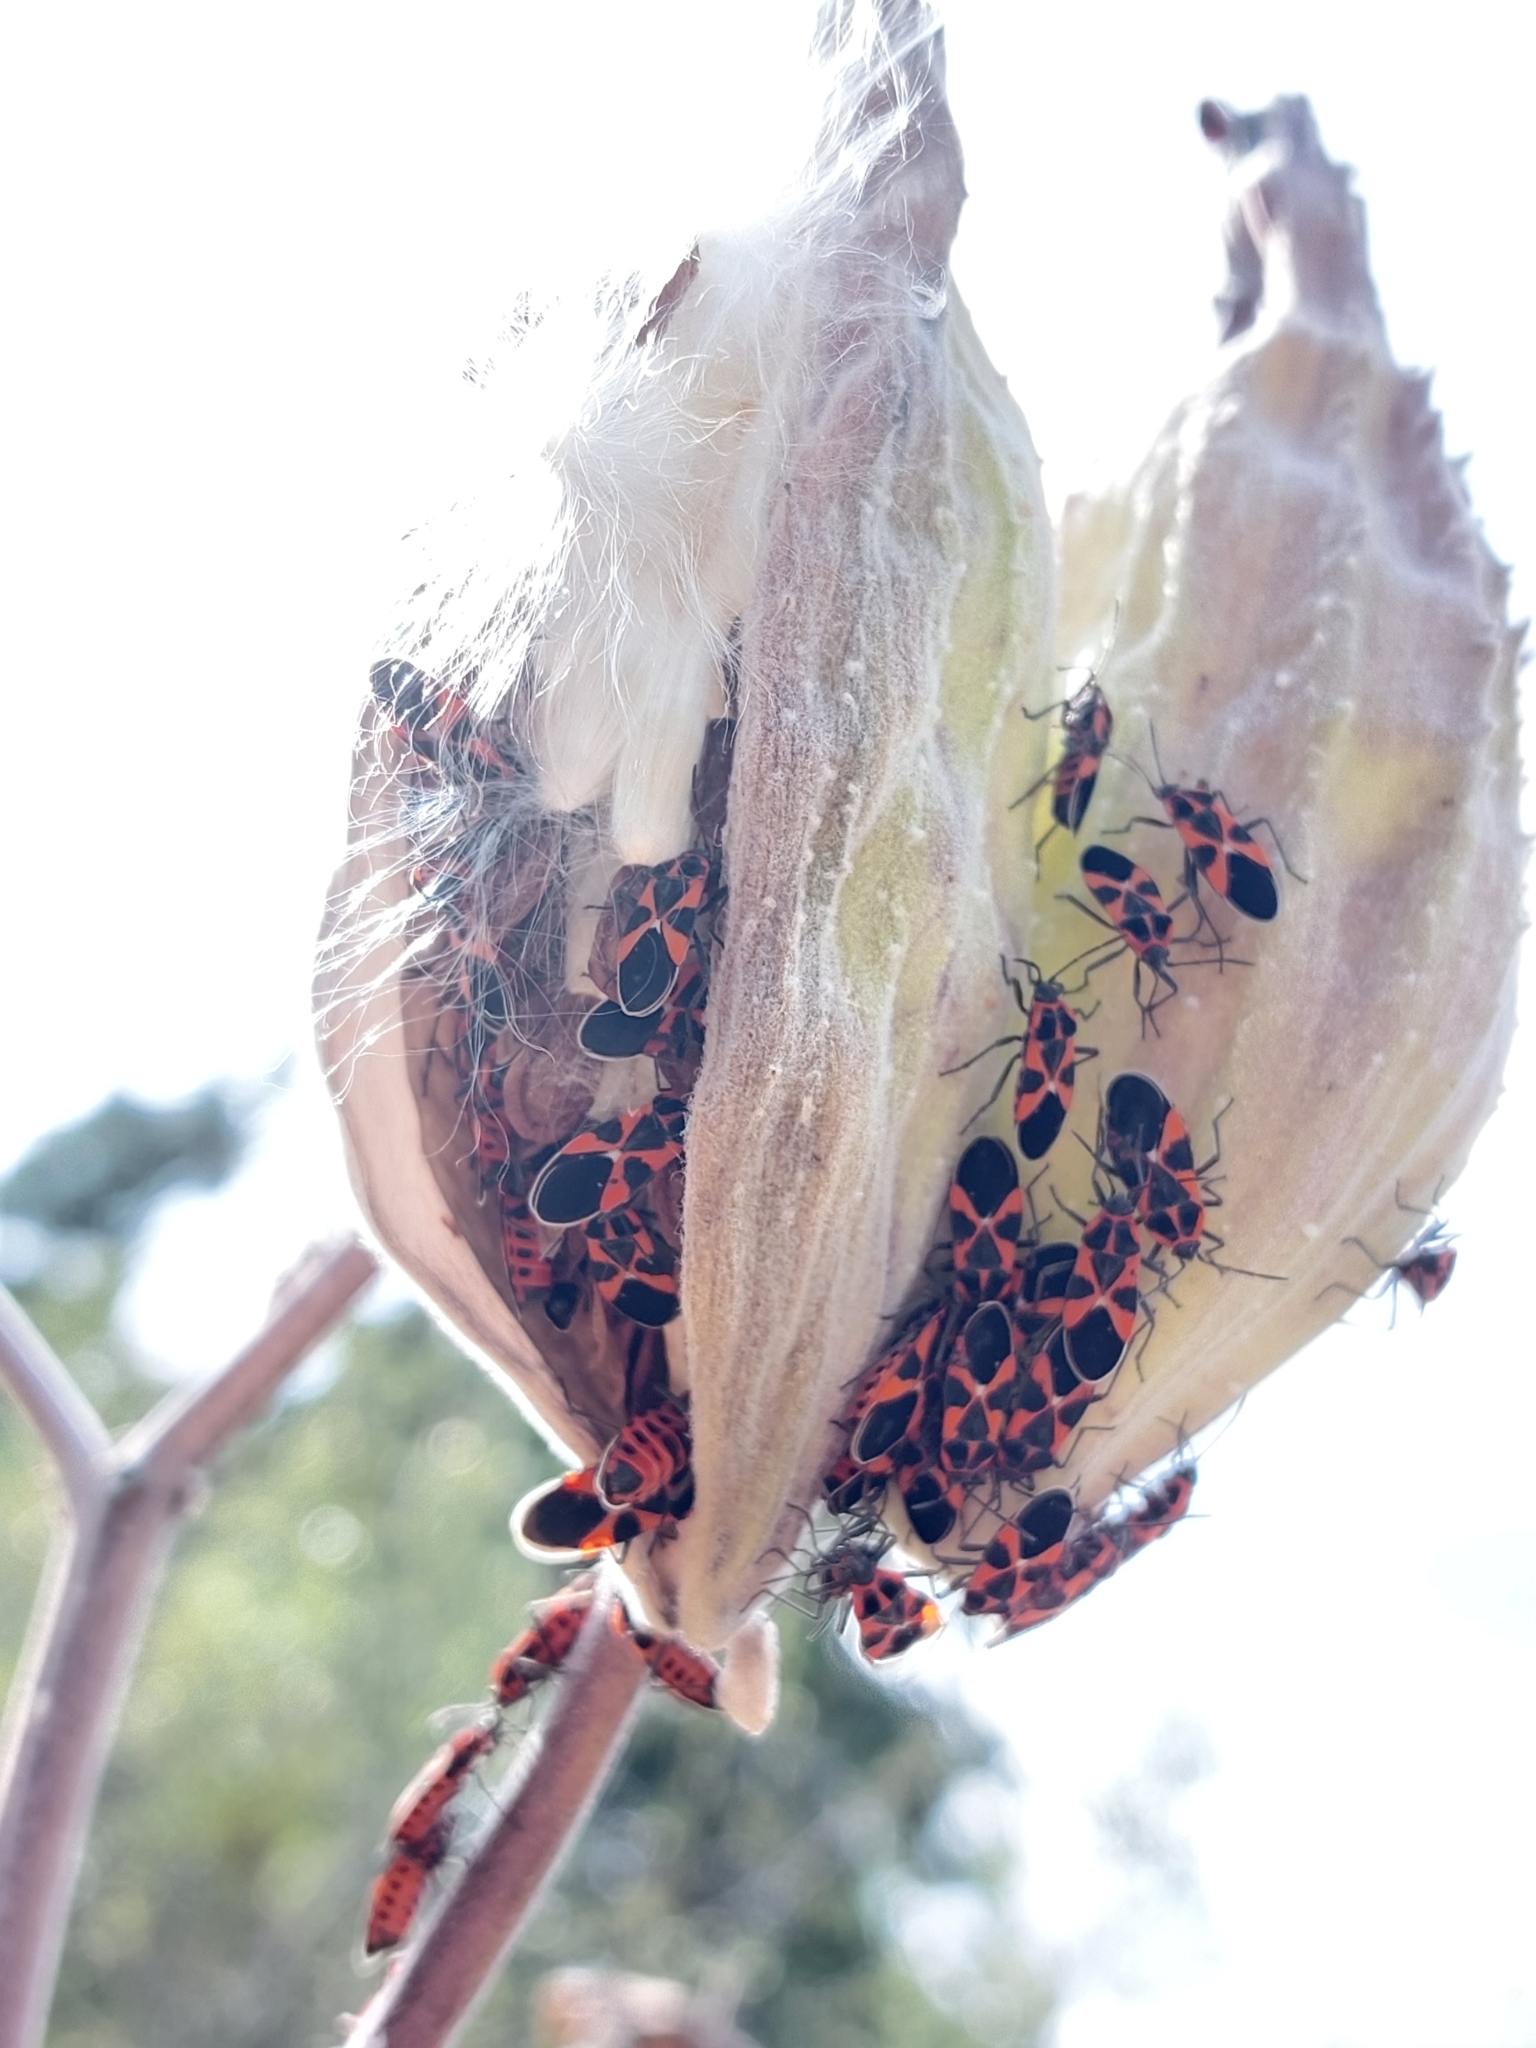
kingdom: Animalia
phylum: Arthropoda
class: Insecta
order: Hemiptera
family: Lygaeidae
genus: Tropidothorax
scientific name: Tropidothorax leucopterus
